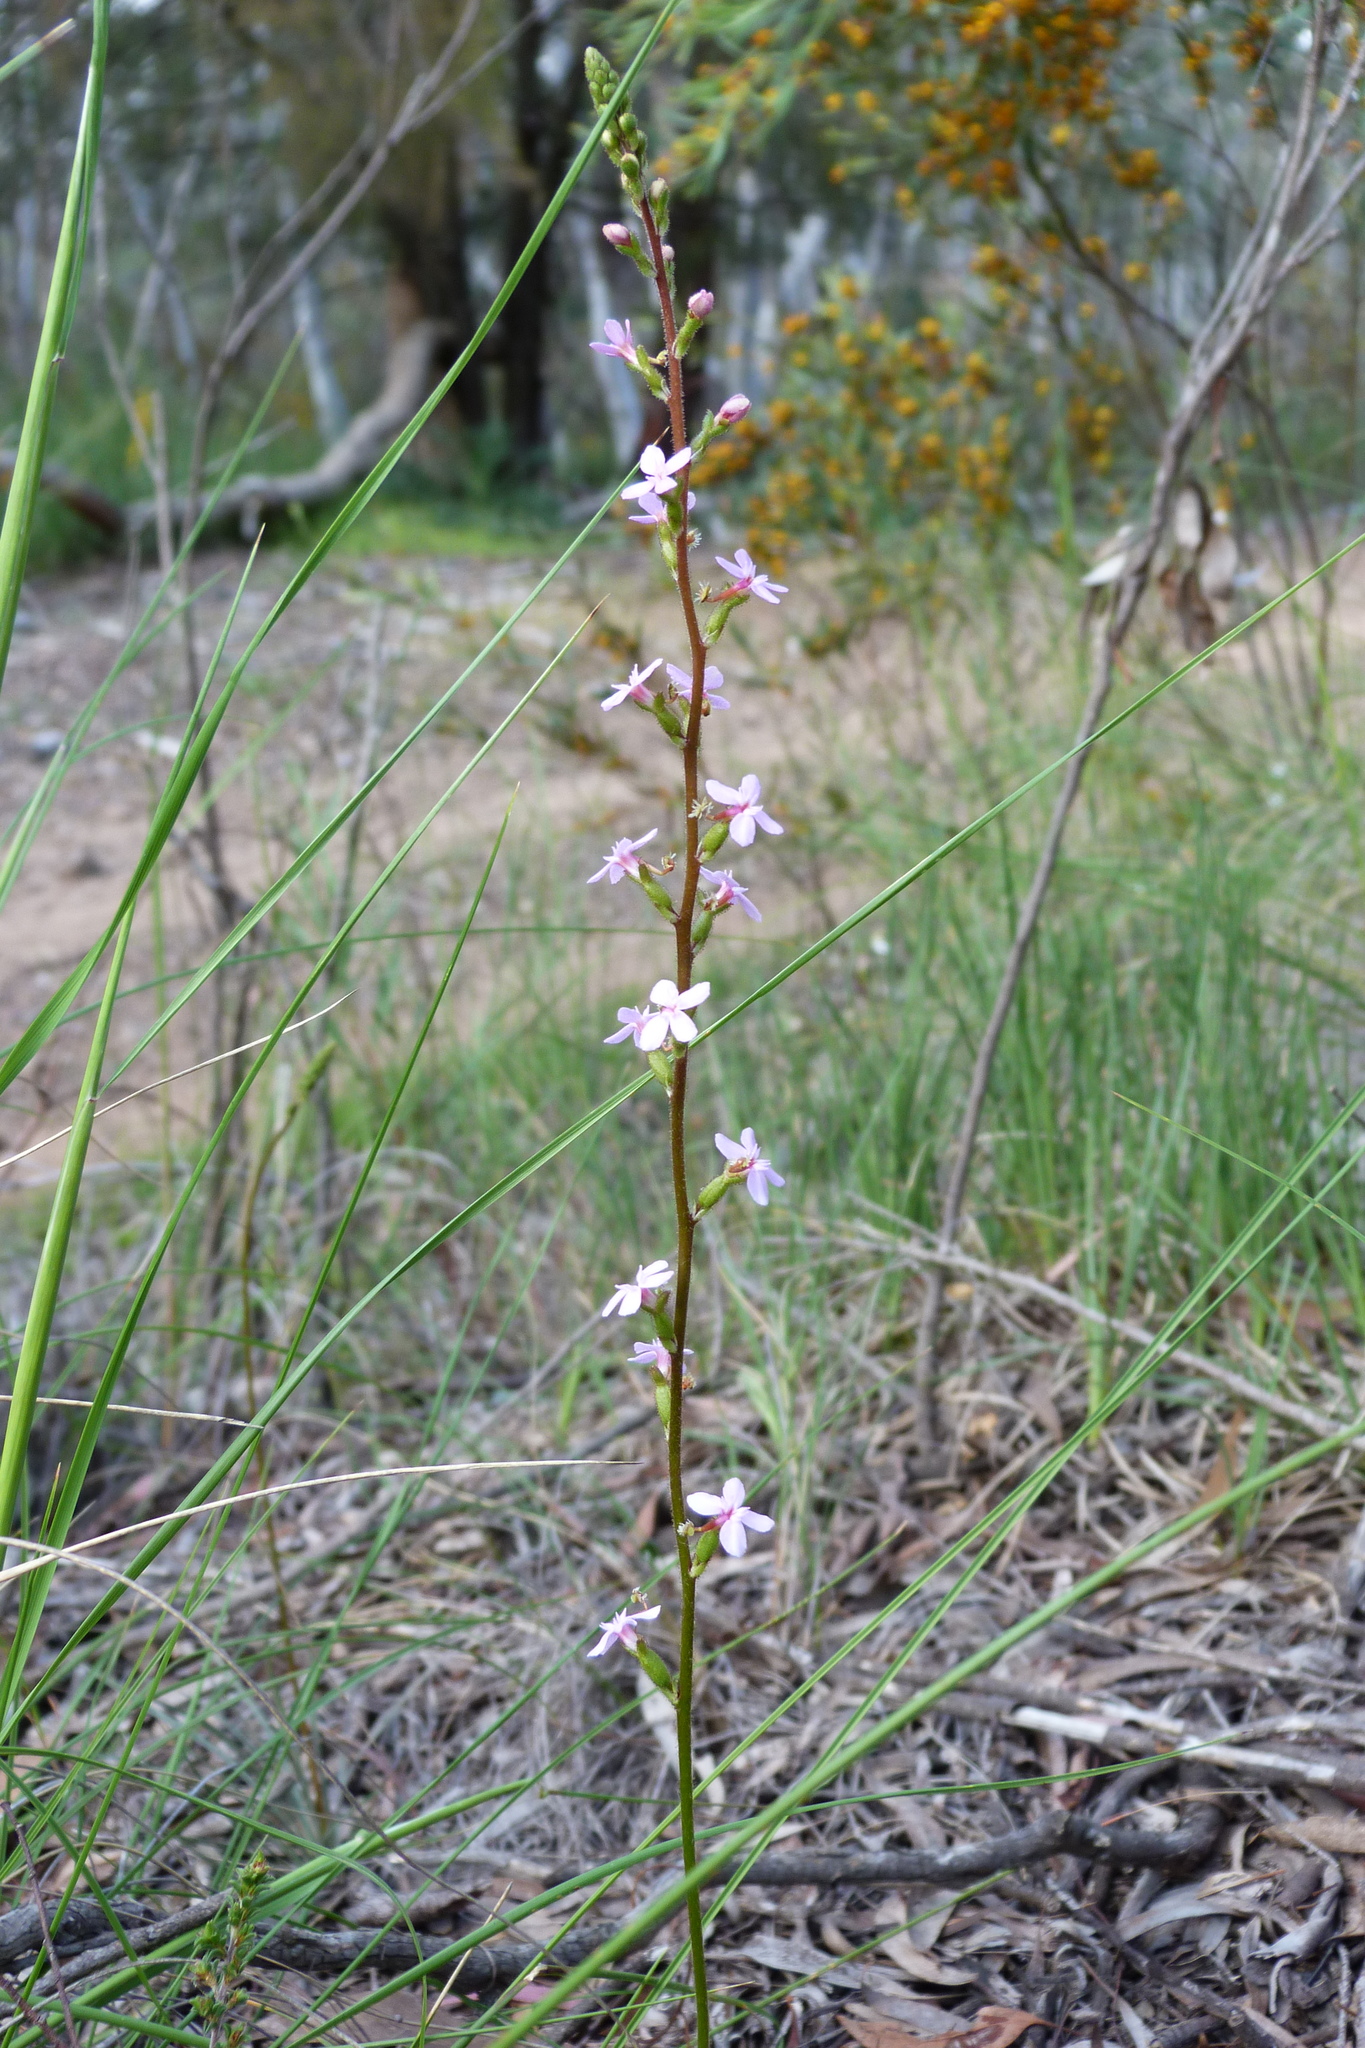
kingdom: Plantae
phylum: Tracheophyta
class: Magnoliopsida
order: Asterales
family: Stylidiaceae
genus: Stylidium
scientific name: Stylidium graminifolium
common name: Grass triggerplant
